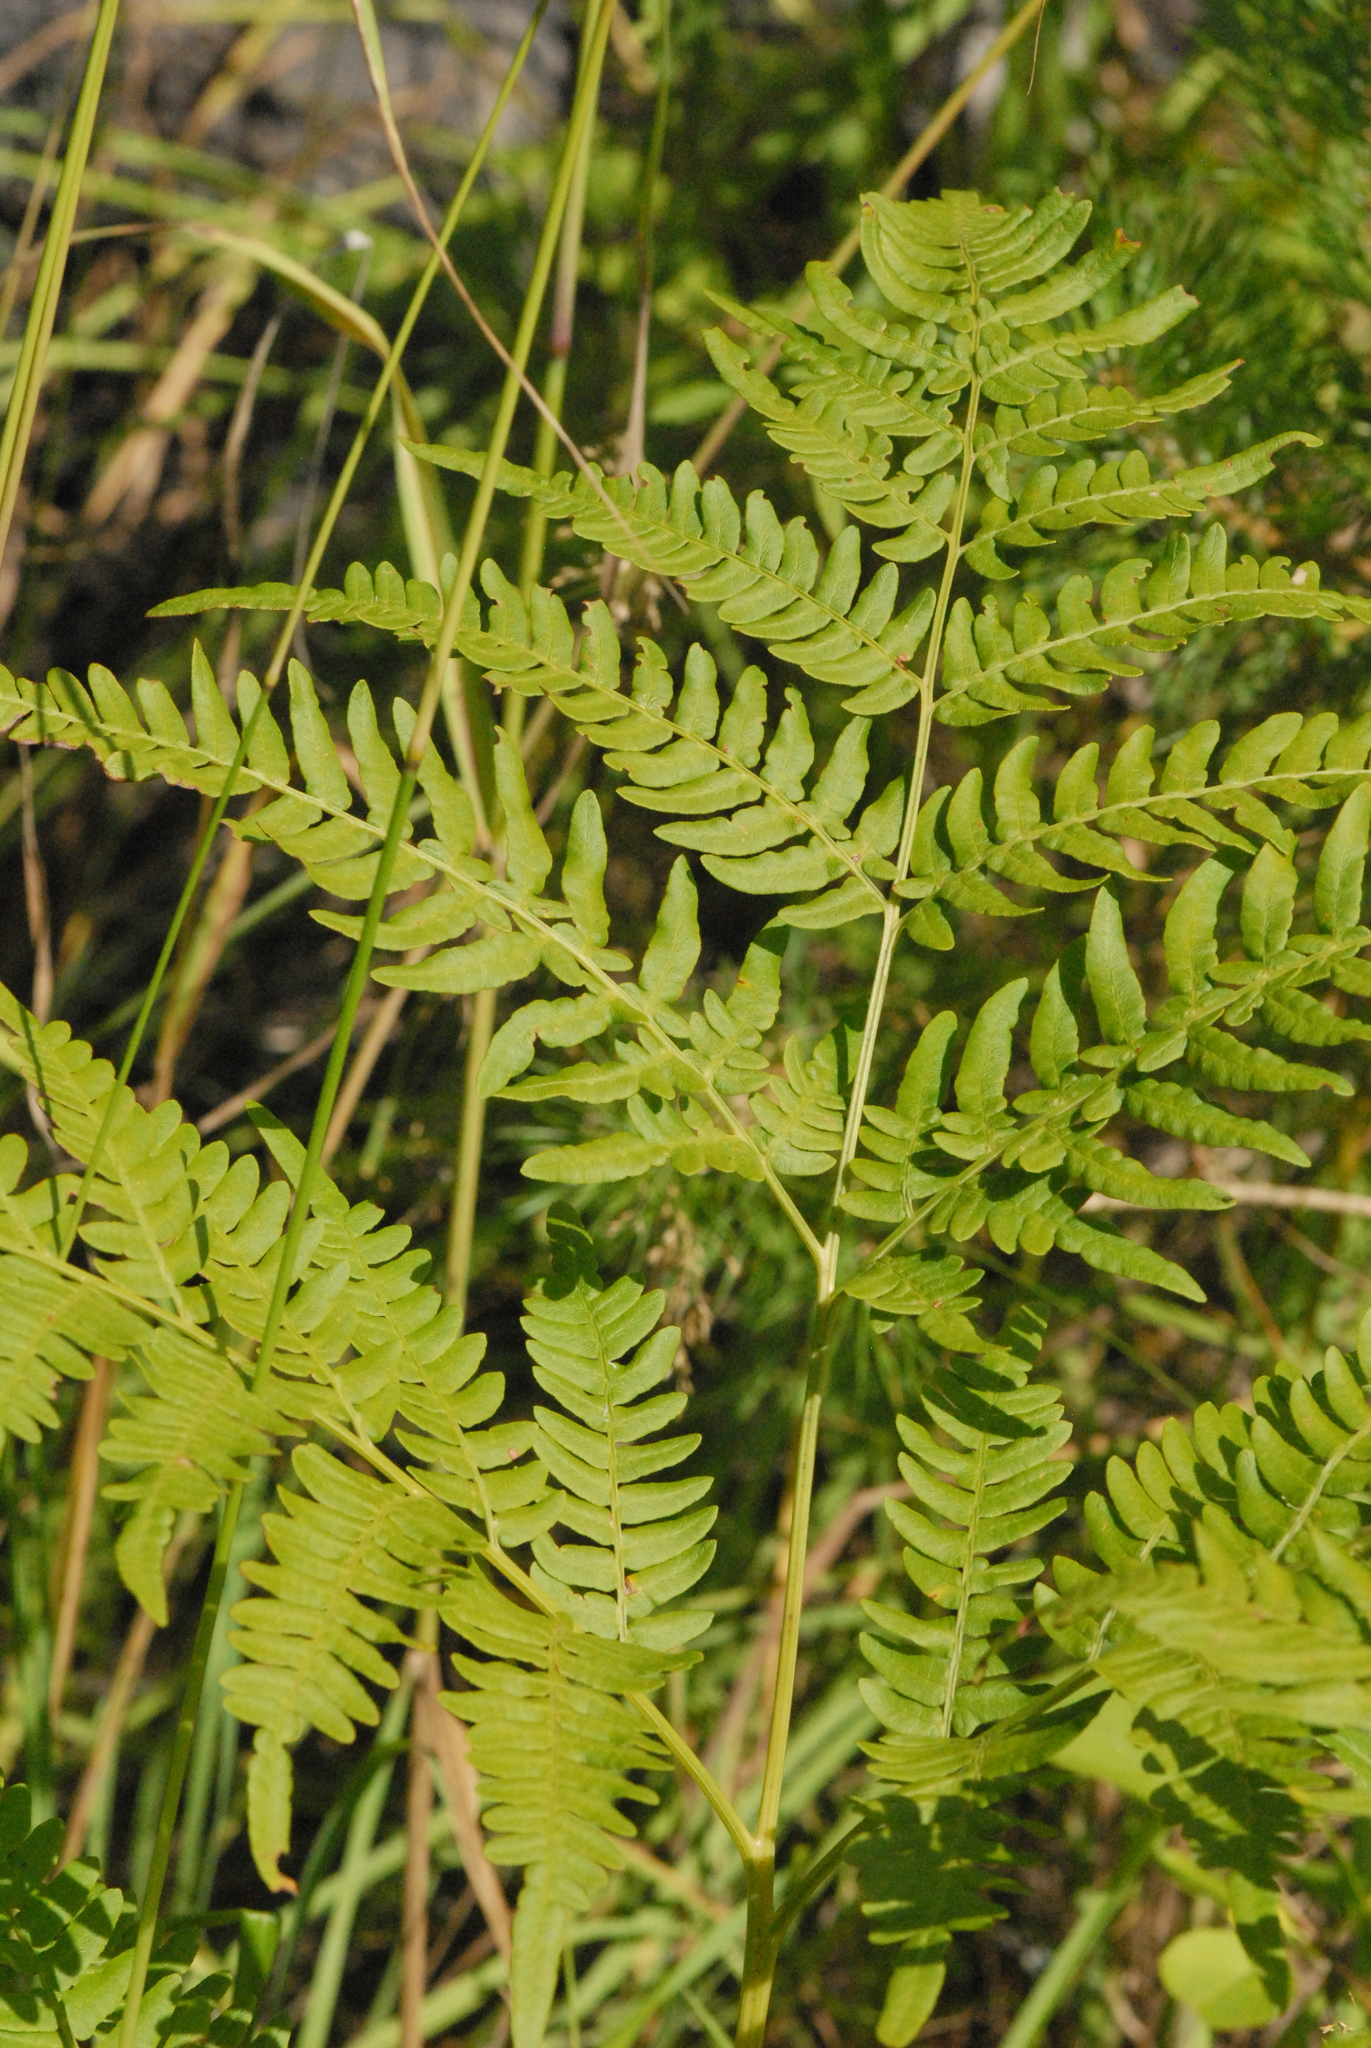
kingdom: Plantae
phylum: Tracheophyta
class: Polypodiopsida
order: Polypodiales
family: Dennstaedtiaceae
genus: Pteridium
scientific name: Pteridium aquilinum
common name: Bracken
